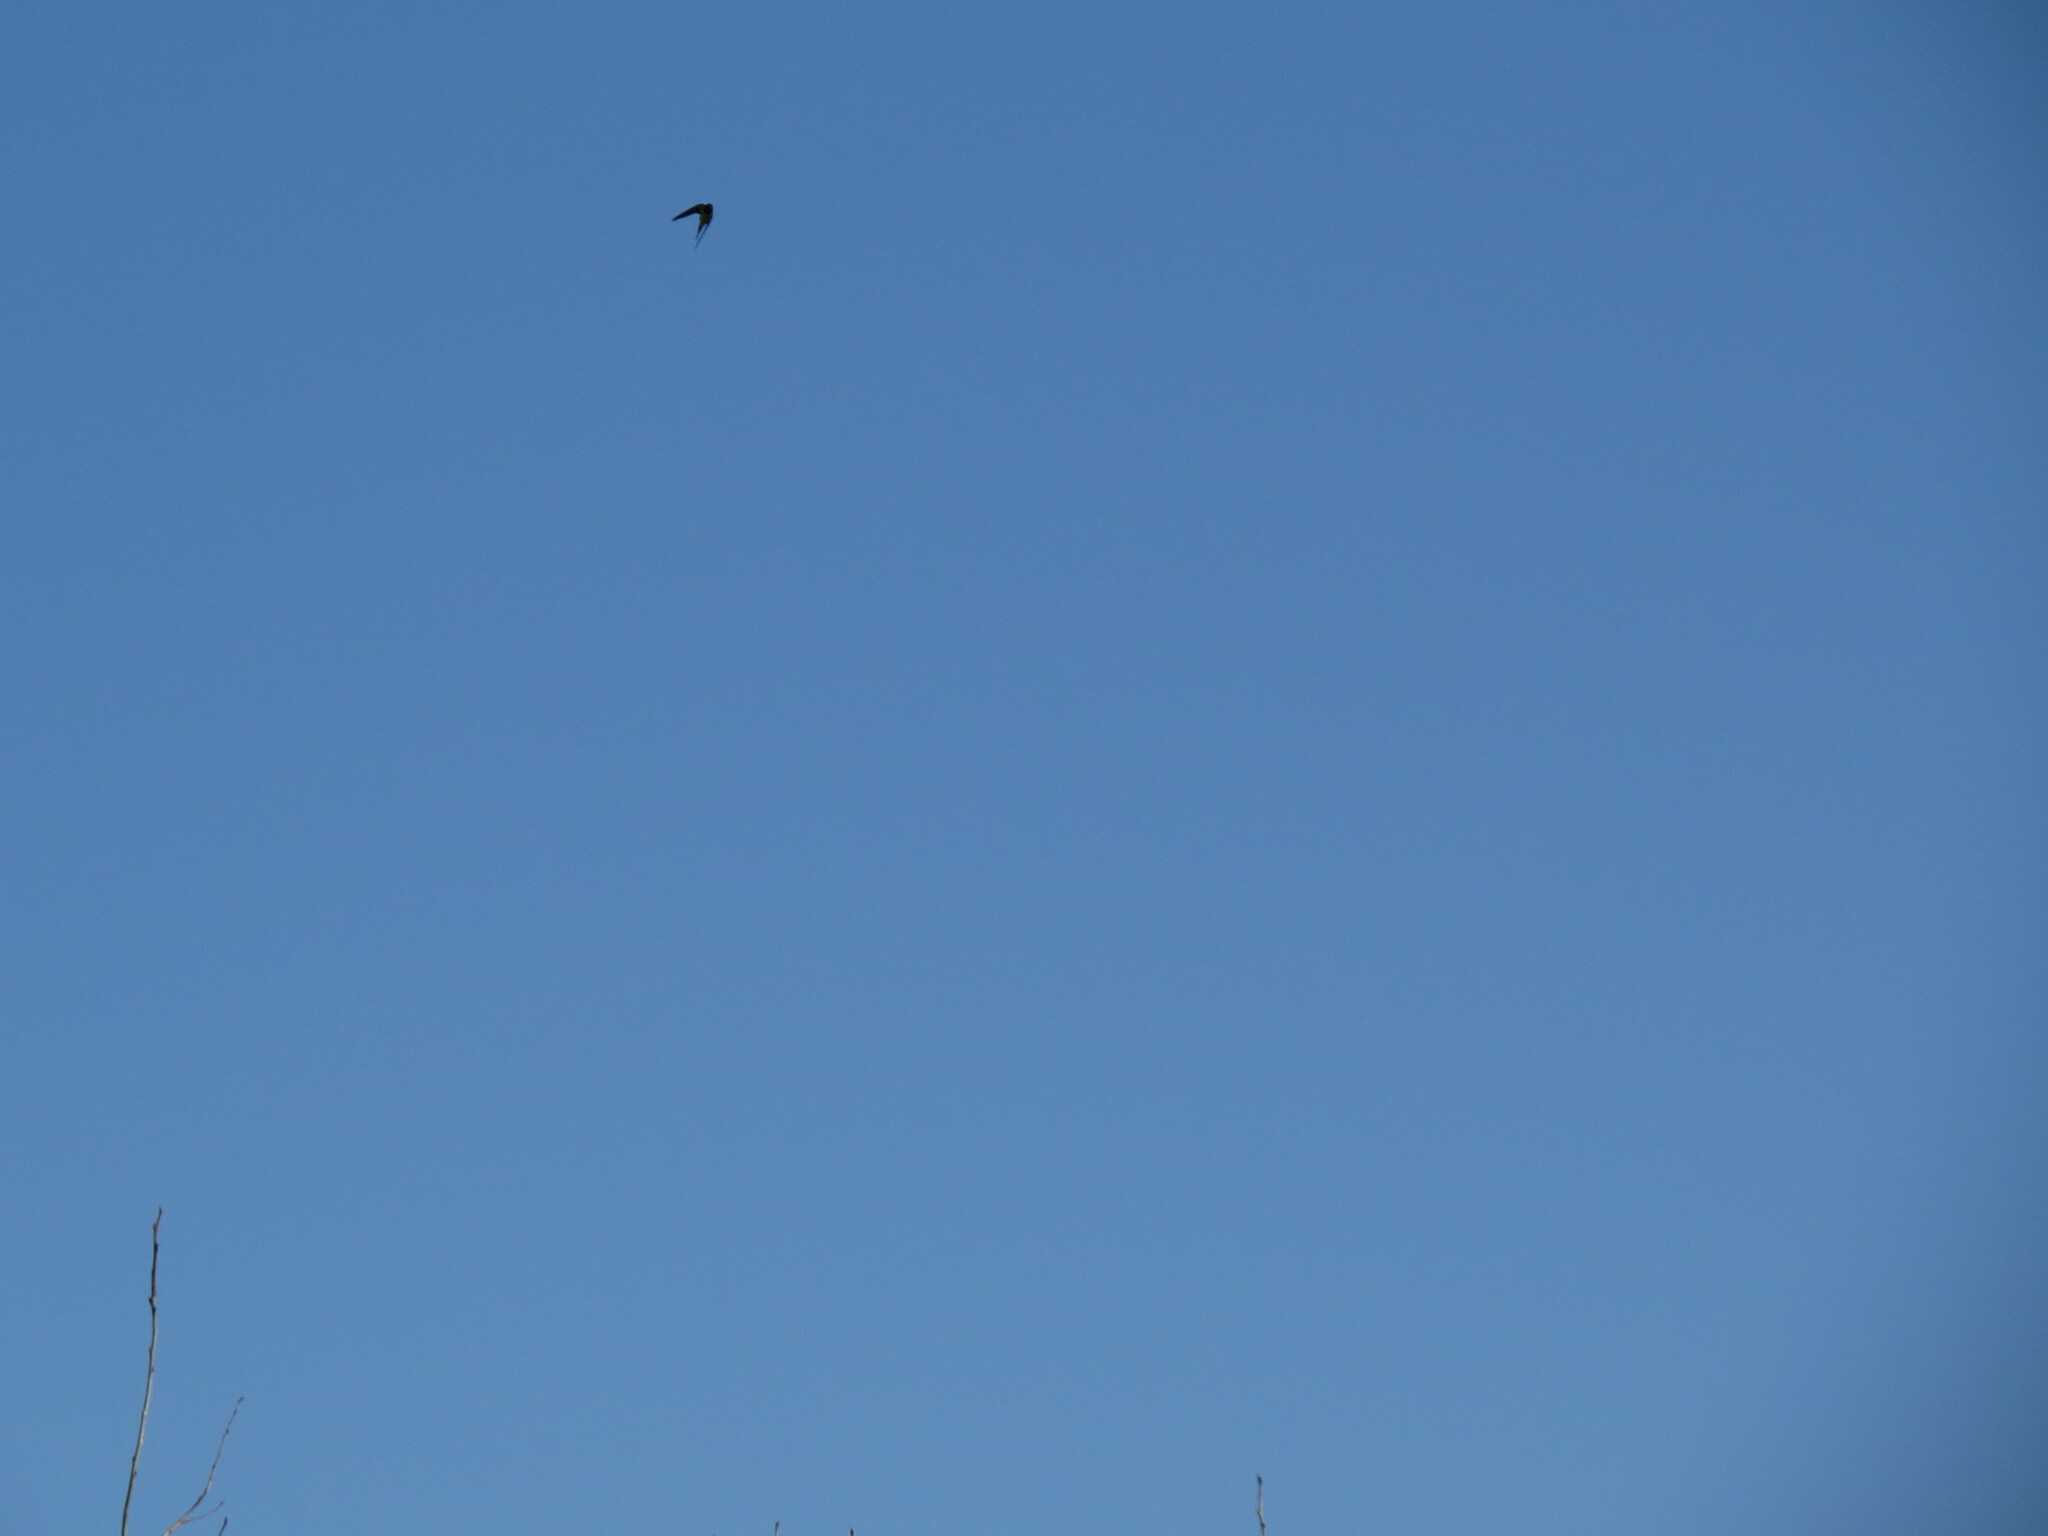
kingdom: Animalia
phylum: Chordata
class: Aves
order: Passeriformes
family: Hirundinidae
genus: Hirundo
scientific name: Hirundo rustica
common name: Barn swallow
